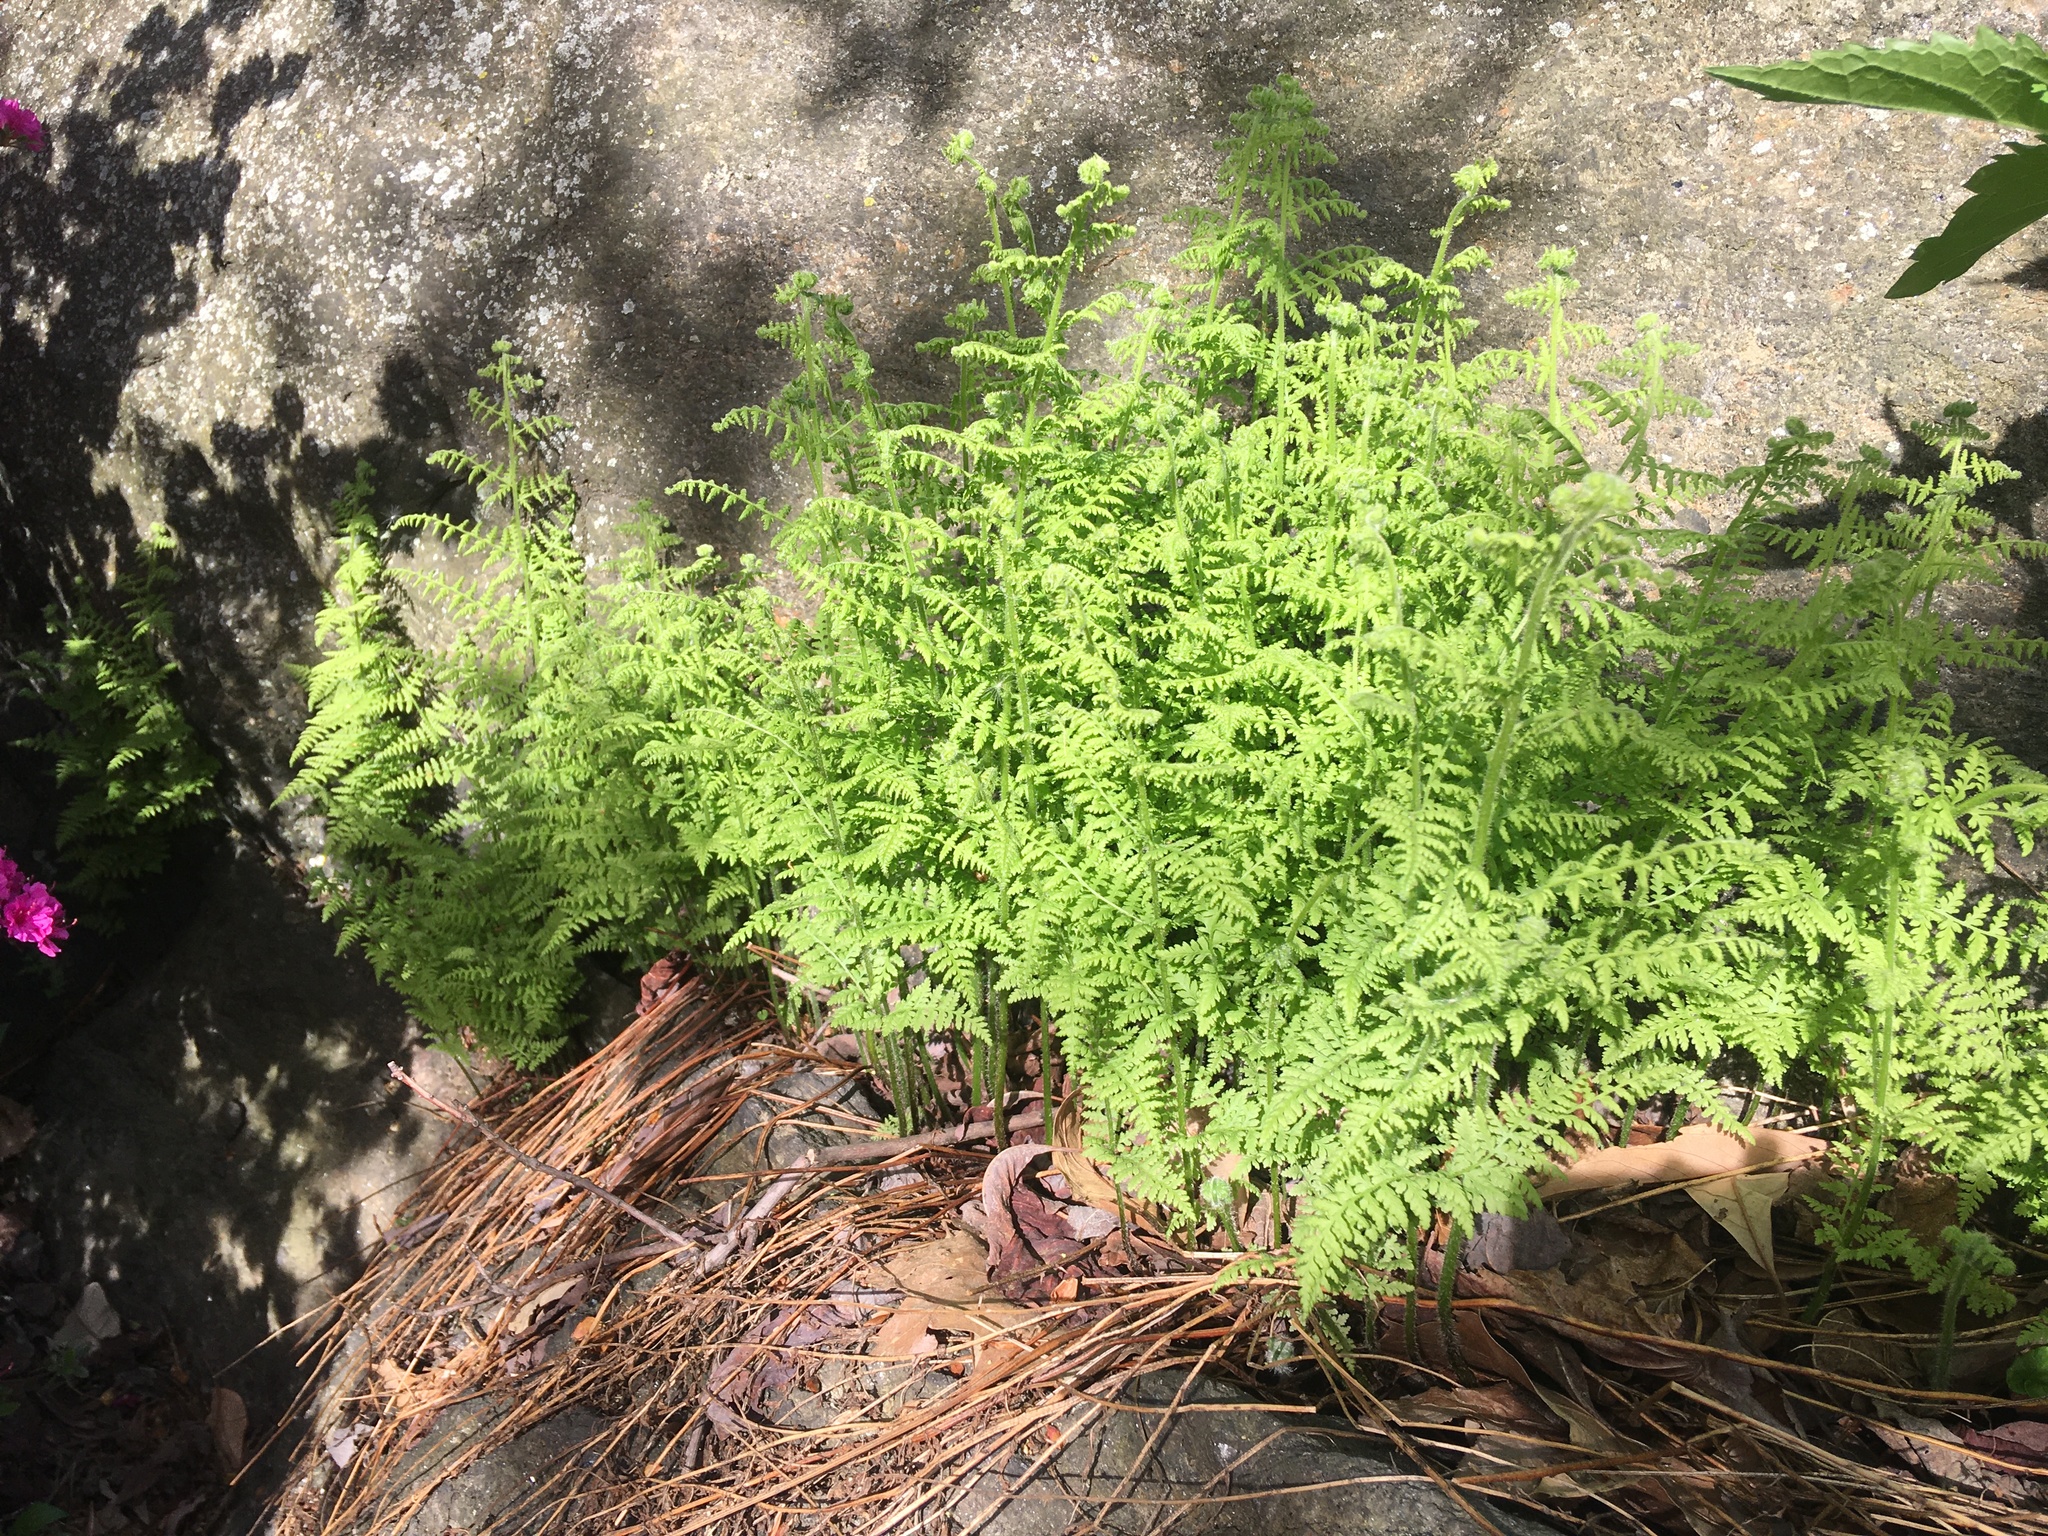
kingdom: Plantae
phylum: Tracheophyta
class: Polypodiopsida
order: Polypodiales
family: Dennstaedtiaceae
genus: Sitobolium
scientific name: Sitobolium punctilobum
